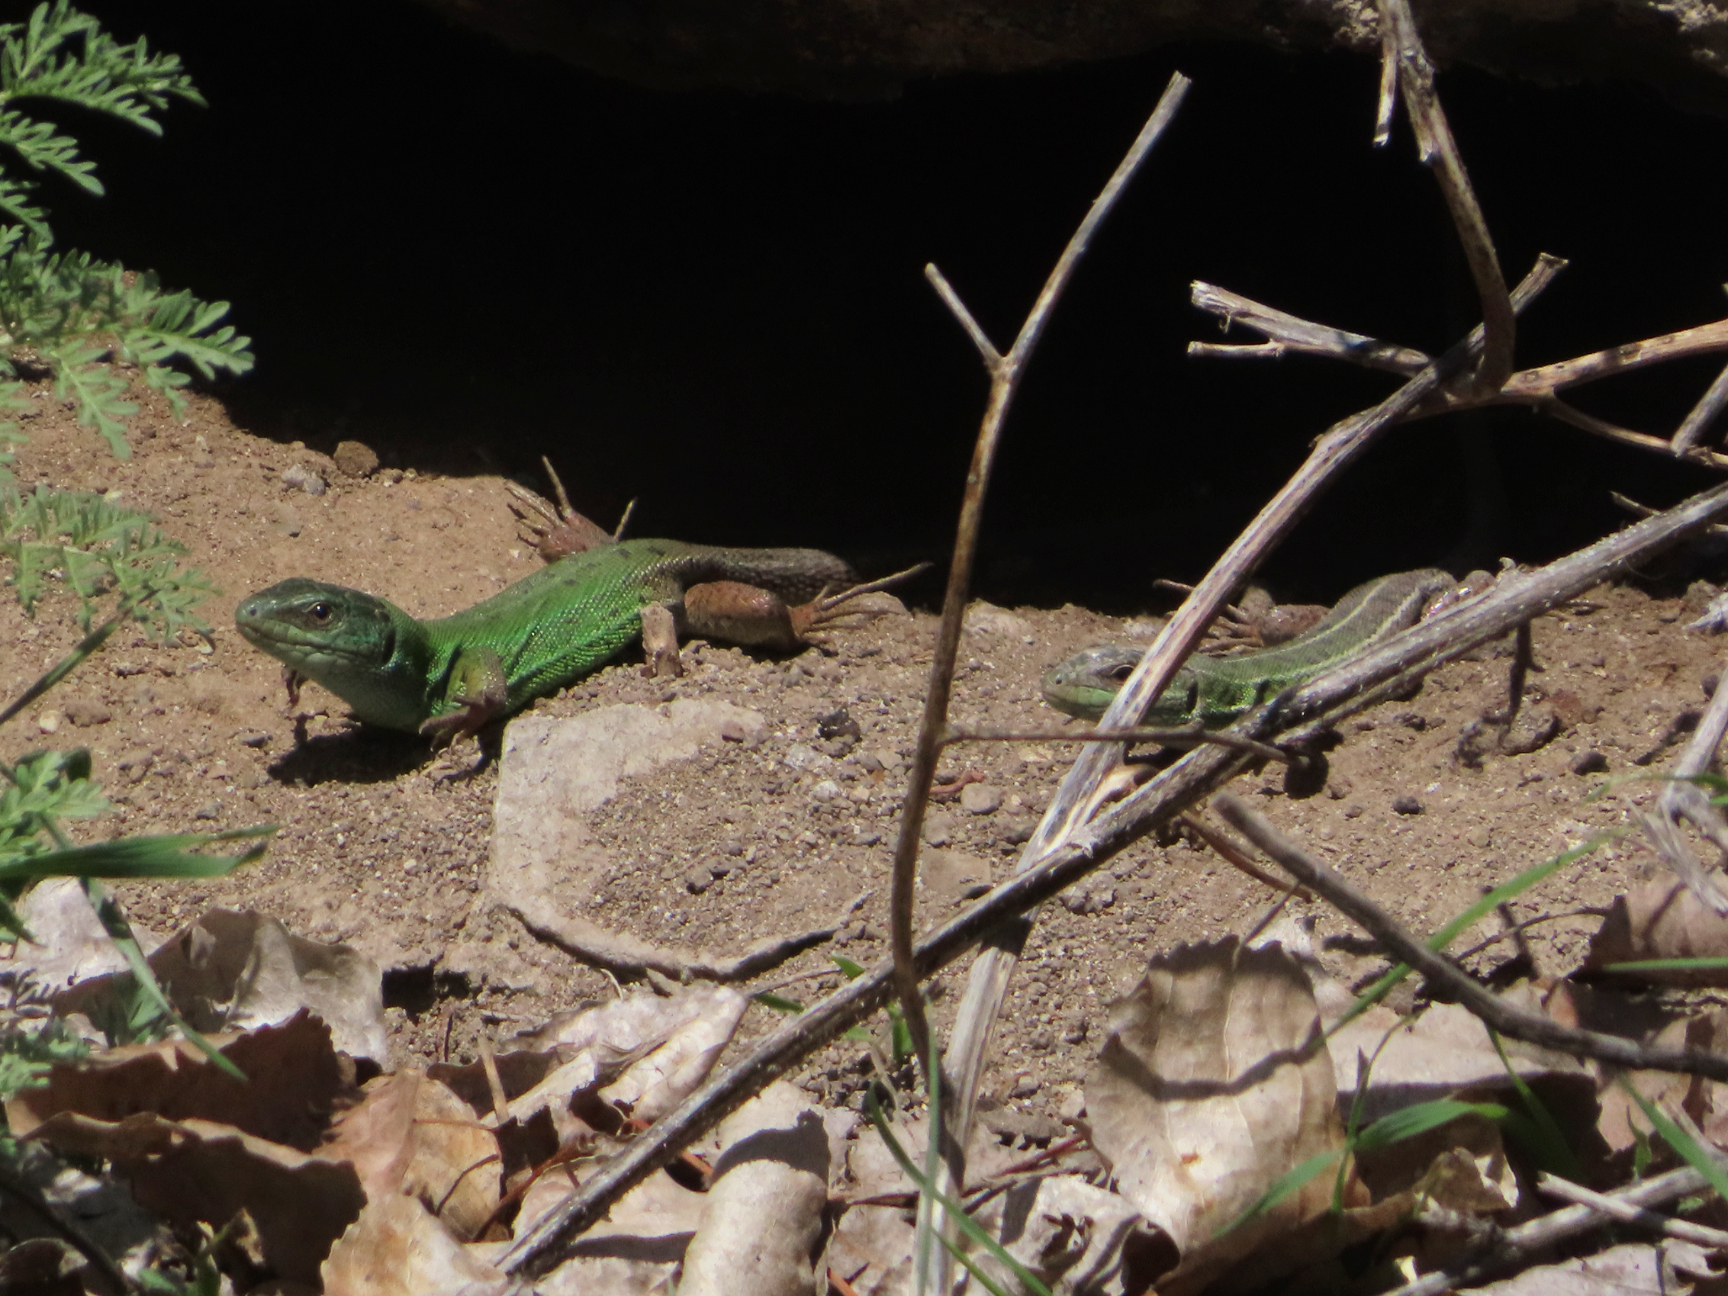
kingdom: Animalia
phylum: Chordata
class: Squamata
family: Lacertidae
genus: Lacerta
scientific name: Lacerta strigata
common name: Caspian green lizard
